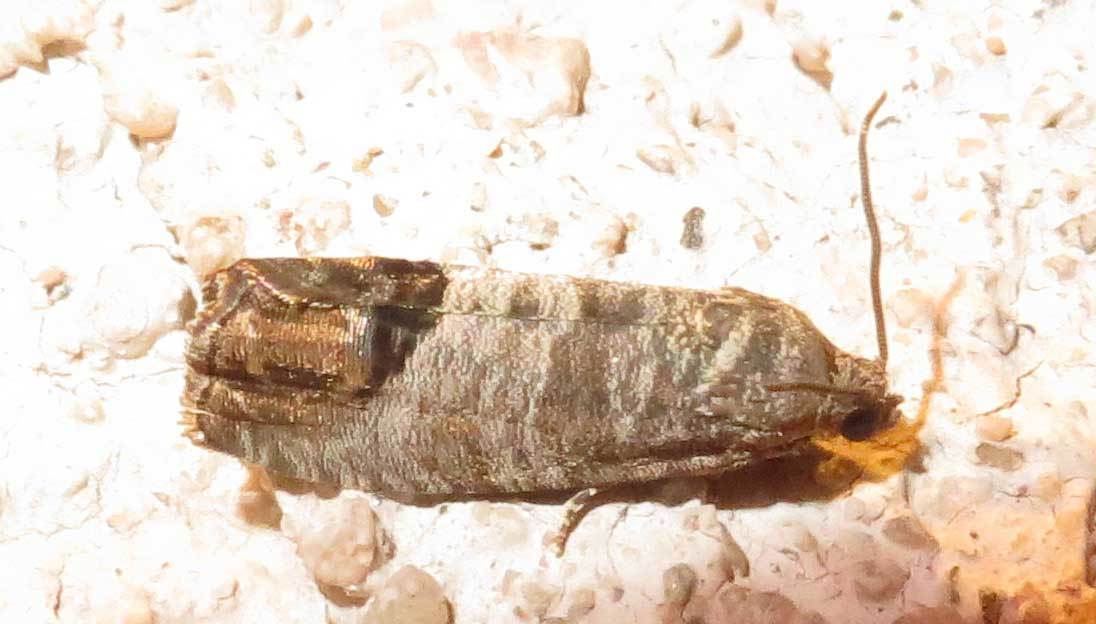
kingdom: Animalia
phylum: Arthropoda
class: Insecta
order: Lepidoptera
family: Tortricidae
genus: Cydia
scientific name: Cydia pomonella
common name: Codling moth
